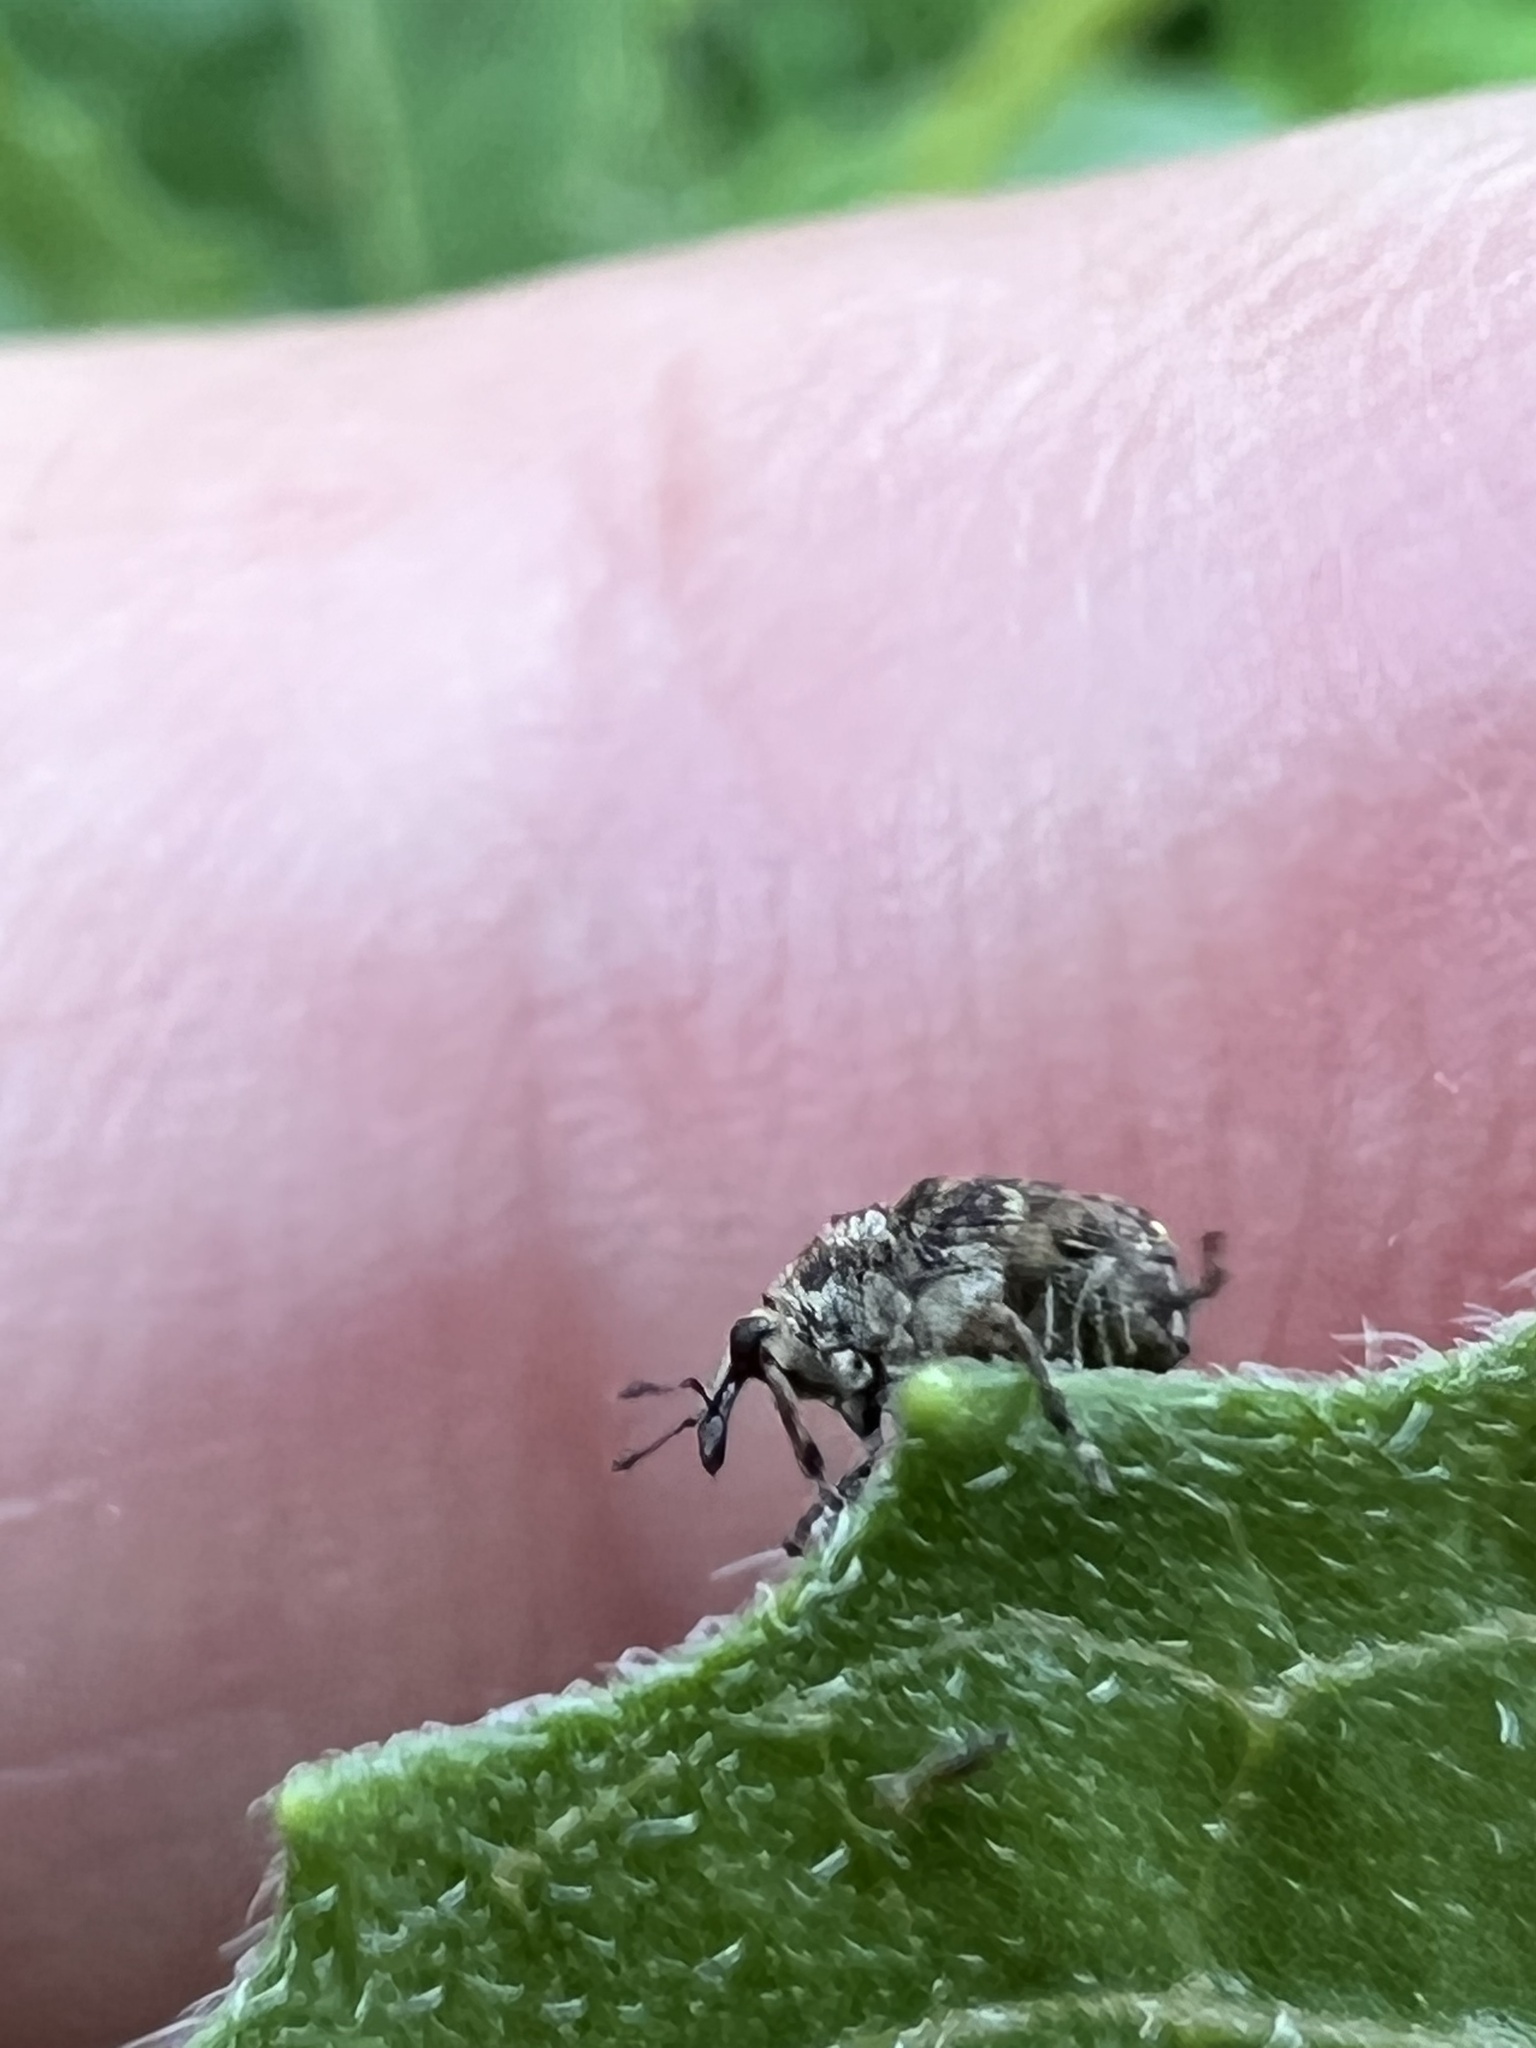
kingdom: Animalia
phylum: Arthropoda
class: Insecta
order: Coleoptera
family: Curculionidae
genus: Acanthoscelidius
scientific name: Acanthoscelidius acephalus
